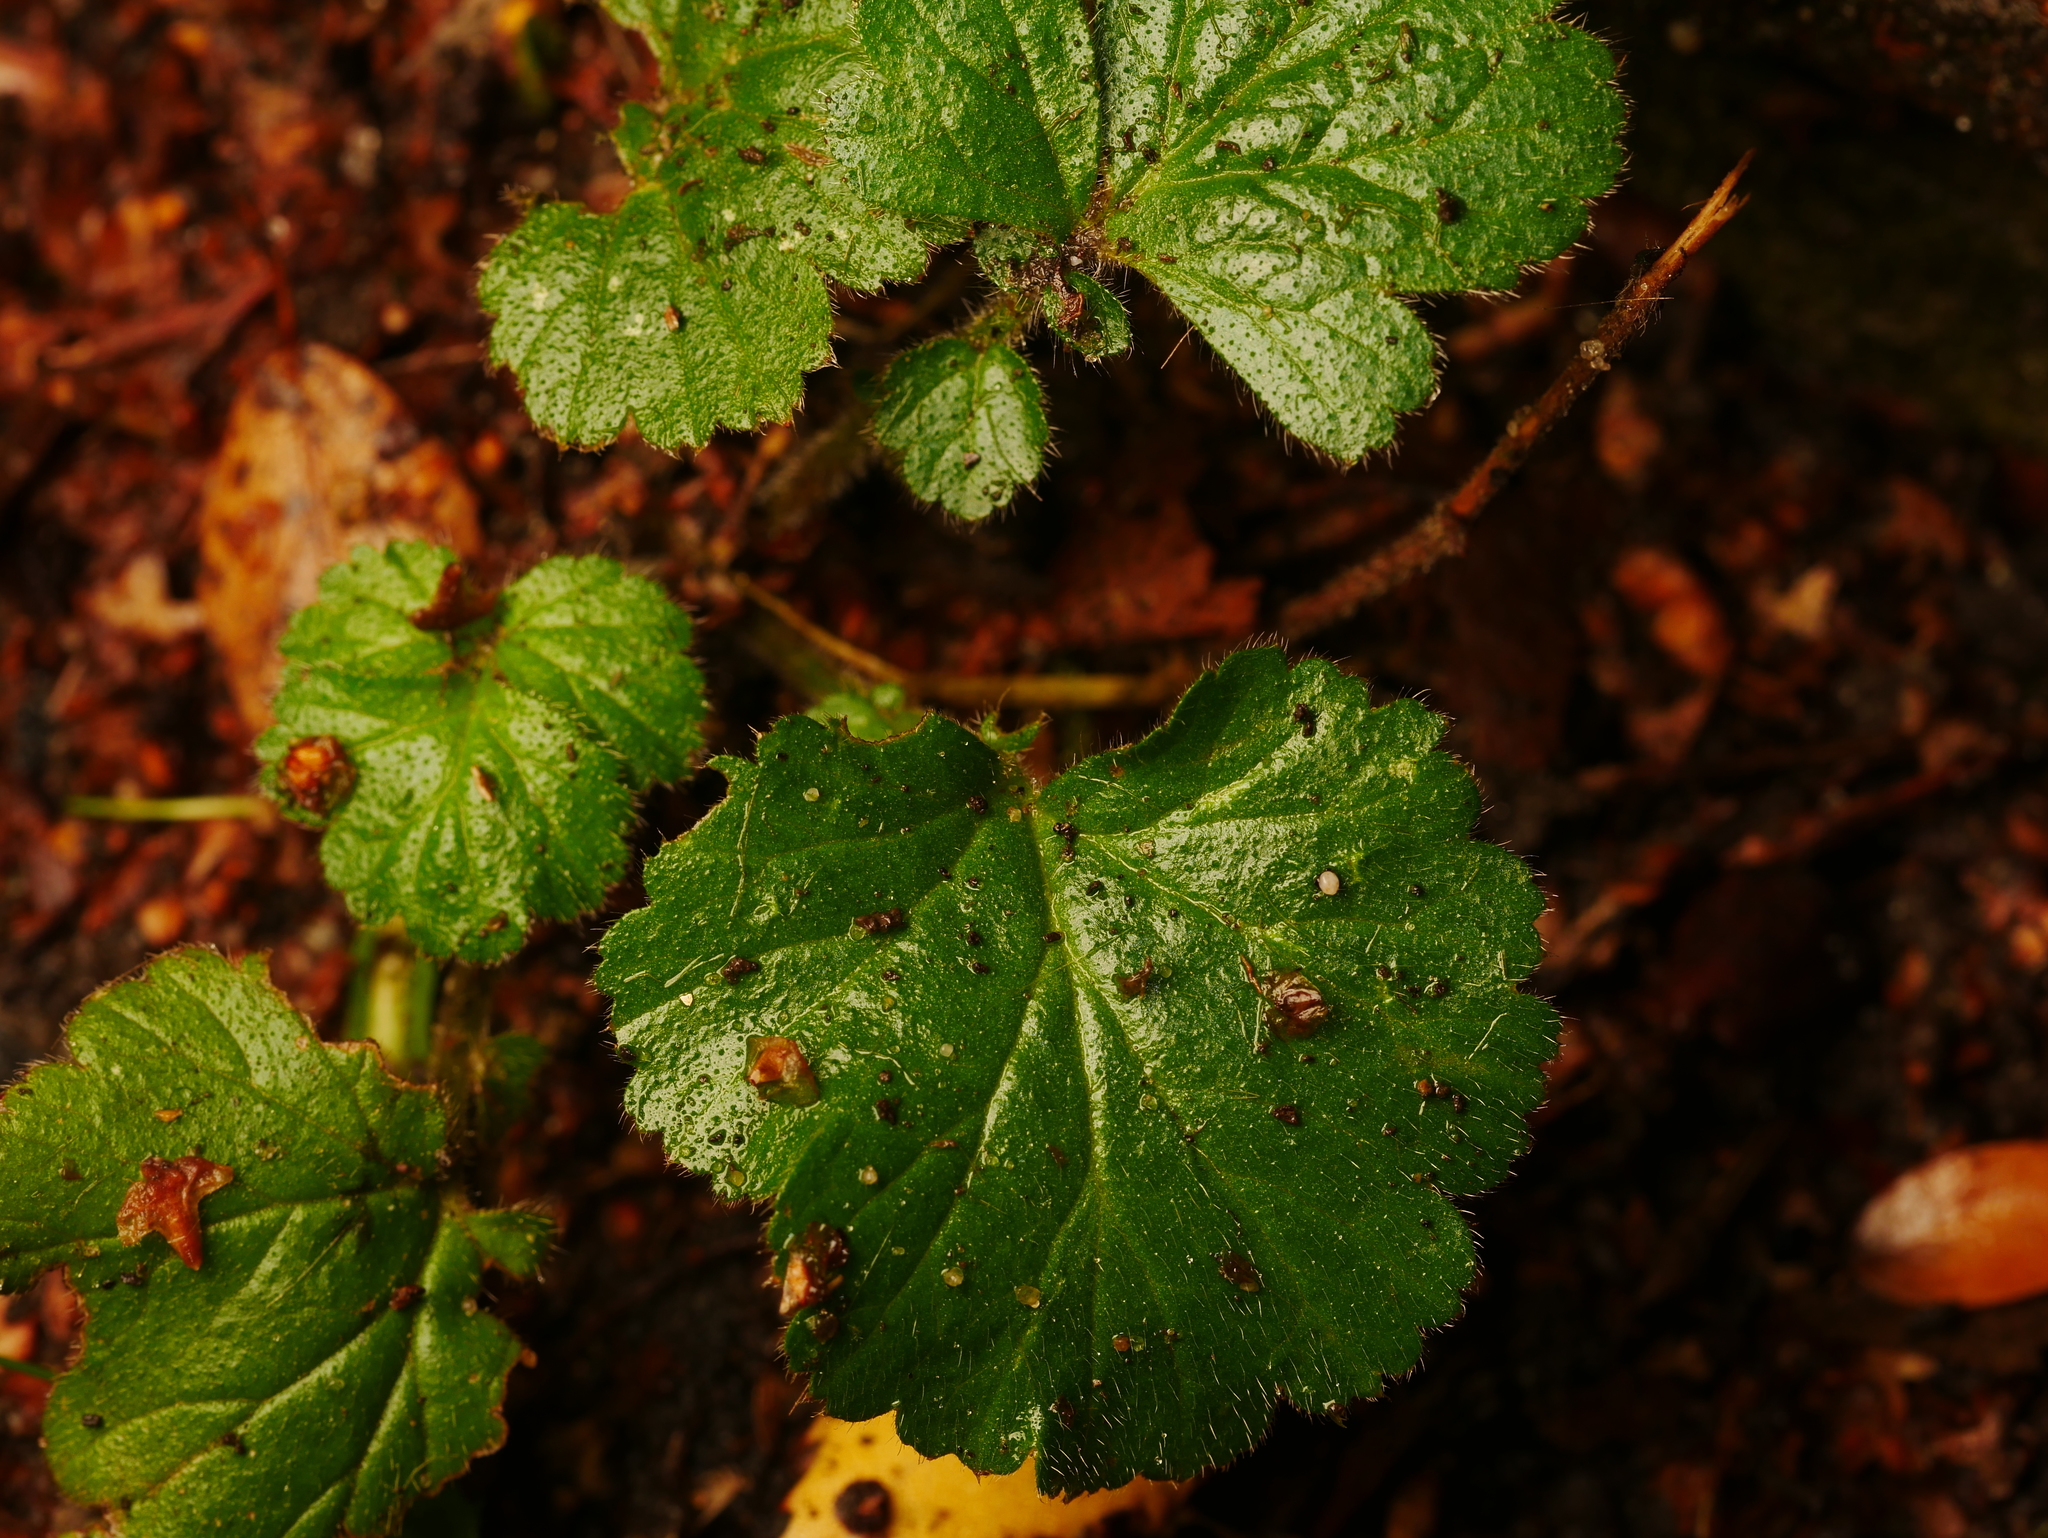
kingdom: Plantae
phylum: Tracheophyta
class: Magnoliopsida
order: Rosales
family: Rosaceae
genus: Geum
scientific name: Geum urbanum
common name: Wood avens
